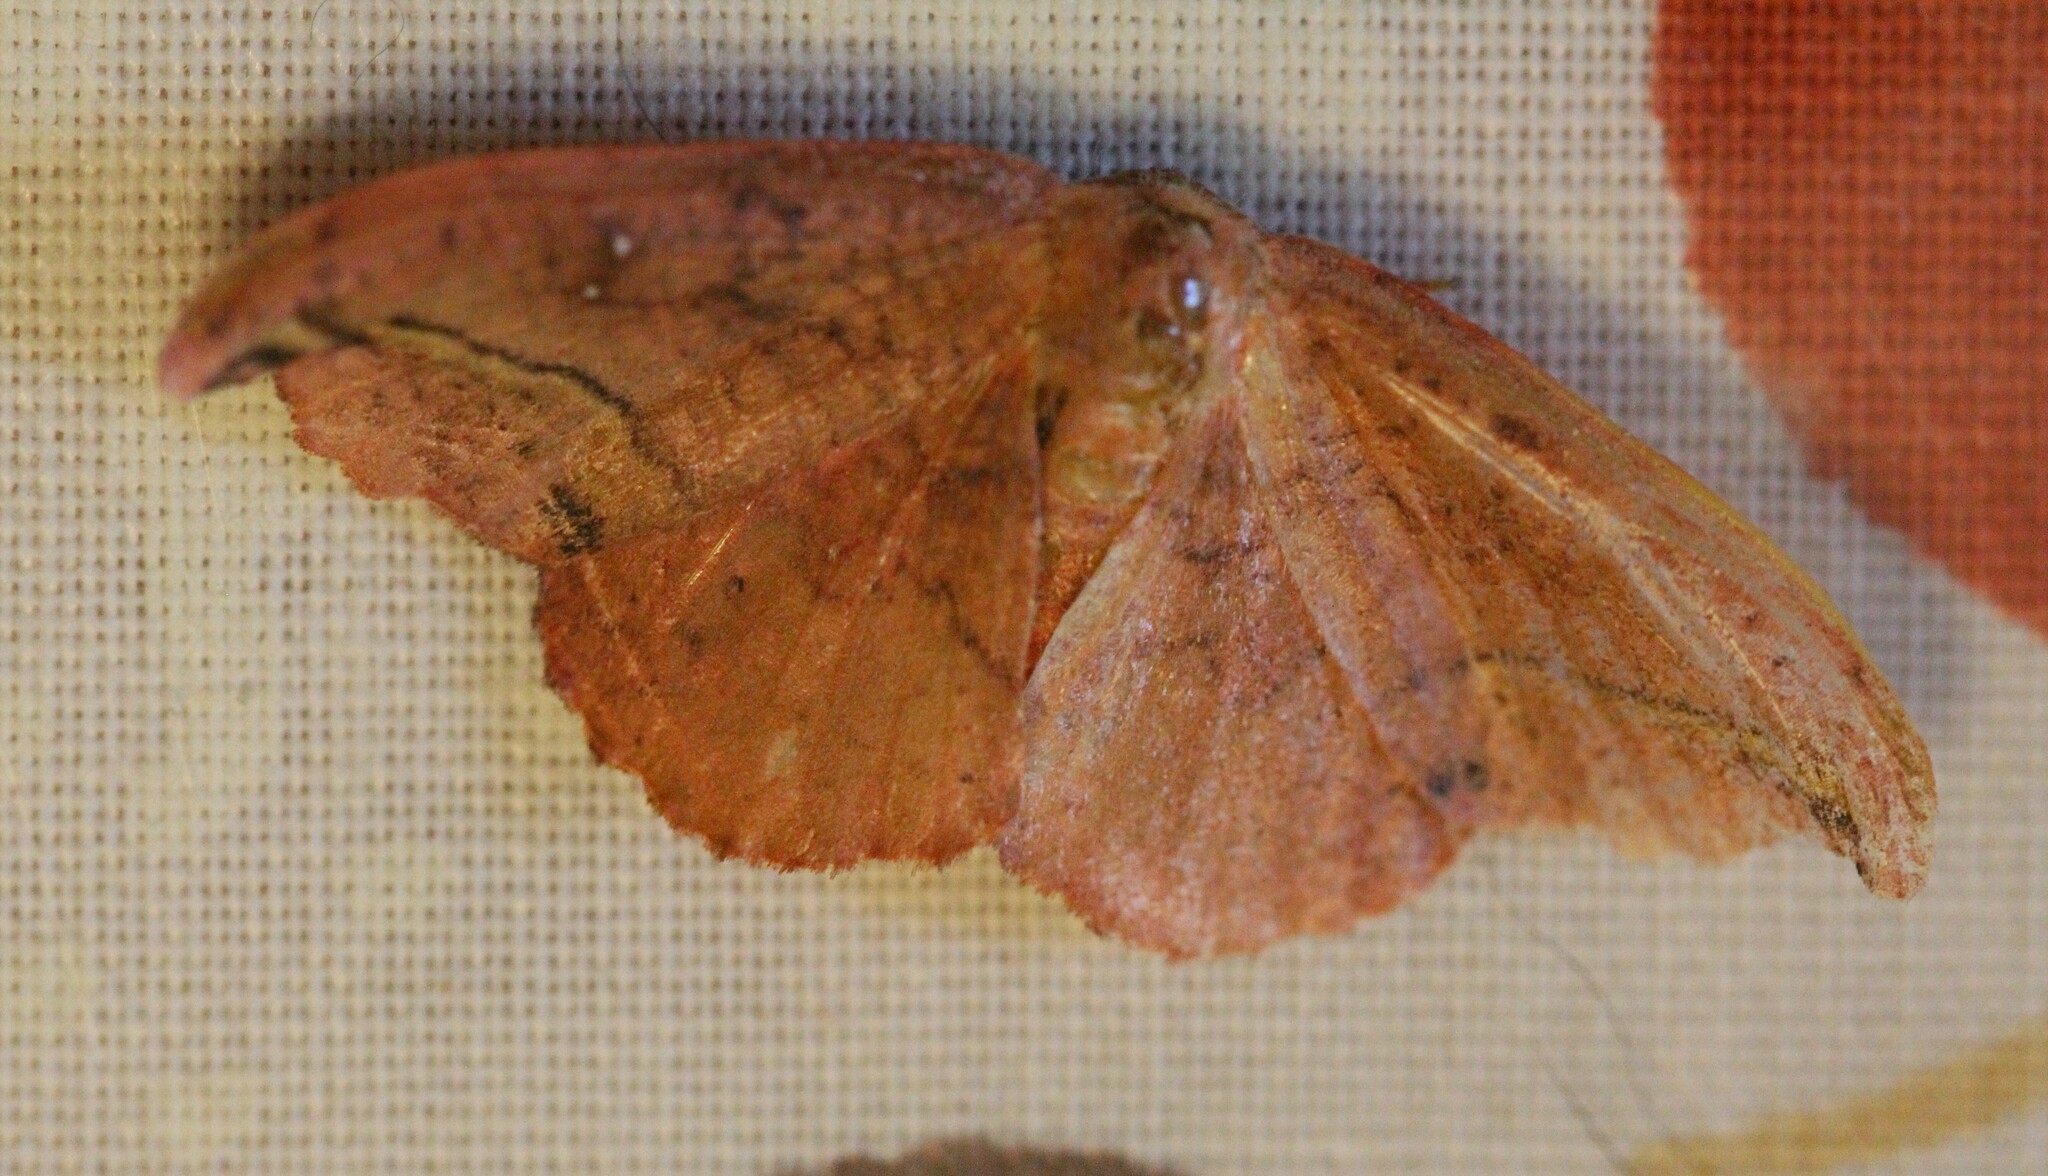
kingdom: Animalia
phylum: Arthropoda
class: Insecta
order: Lepidoptera
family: Drepanidae
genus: Oreta
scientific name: Oreta rosea
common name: Rose hooktip
